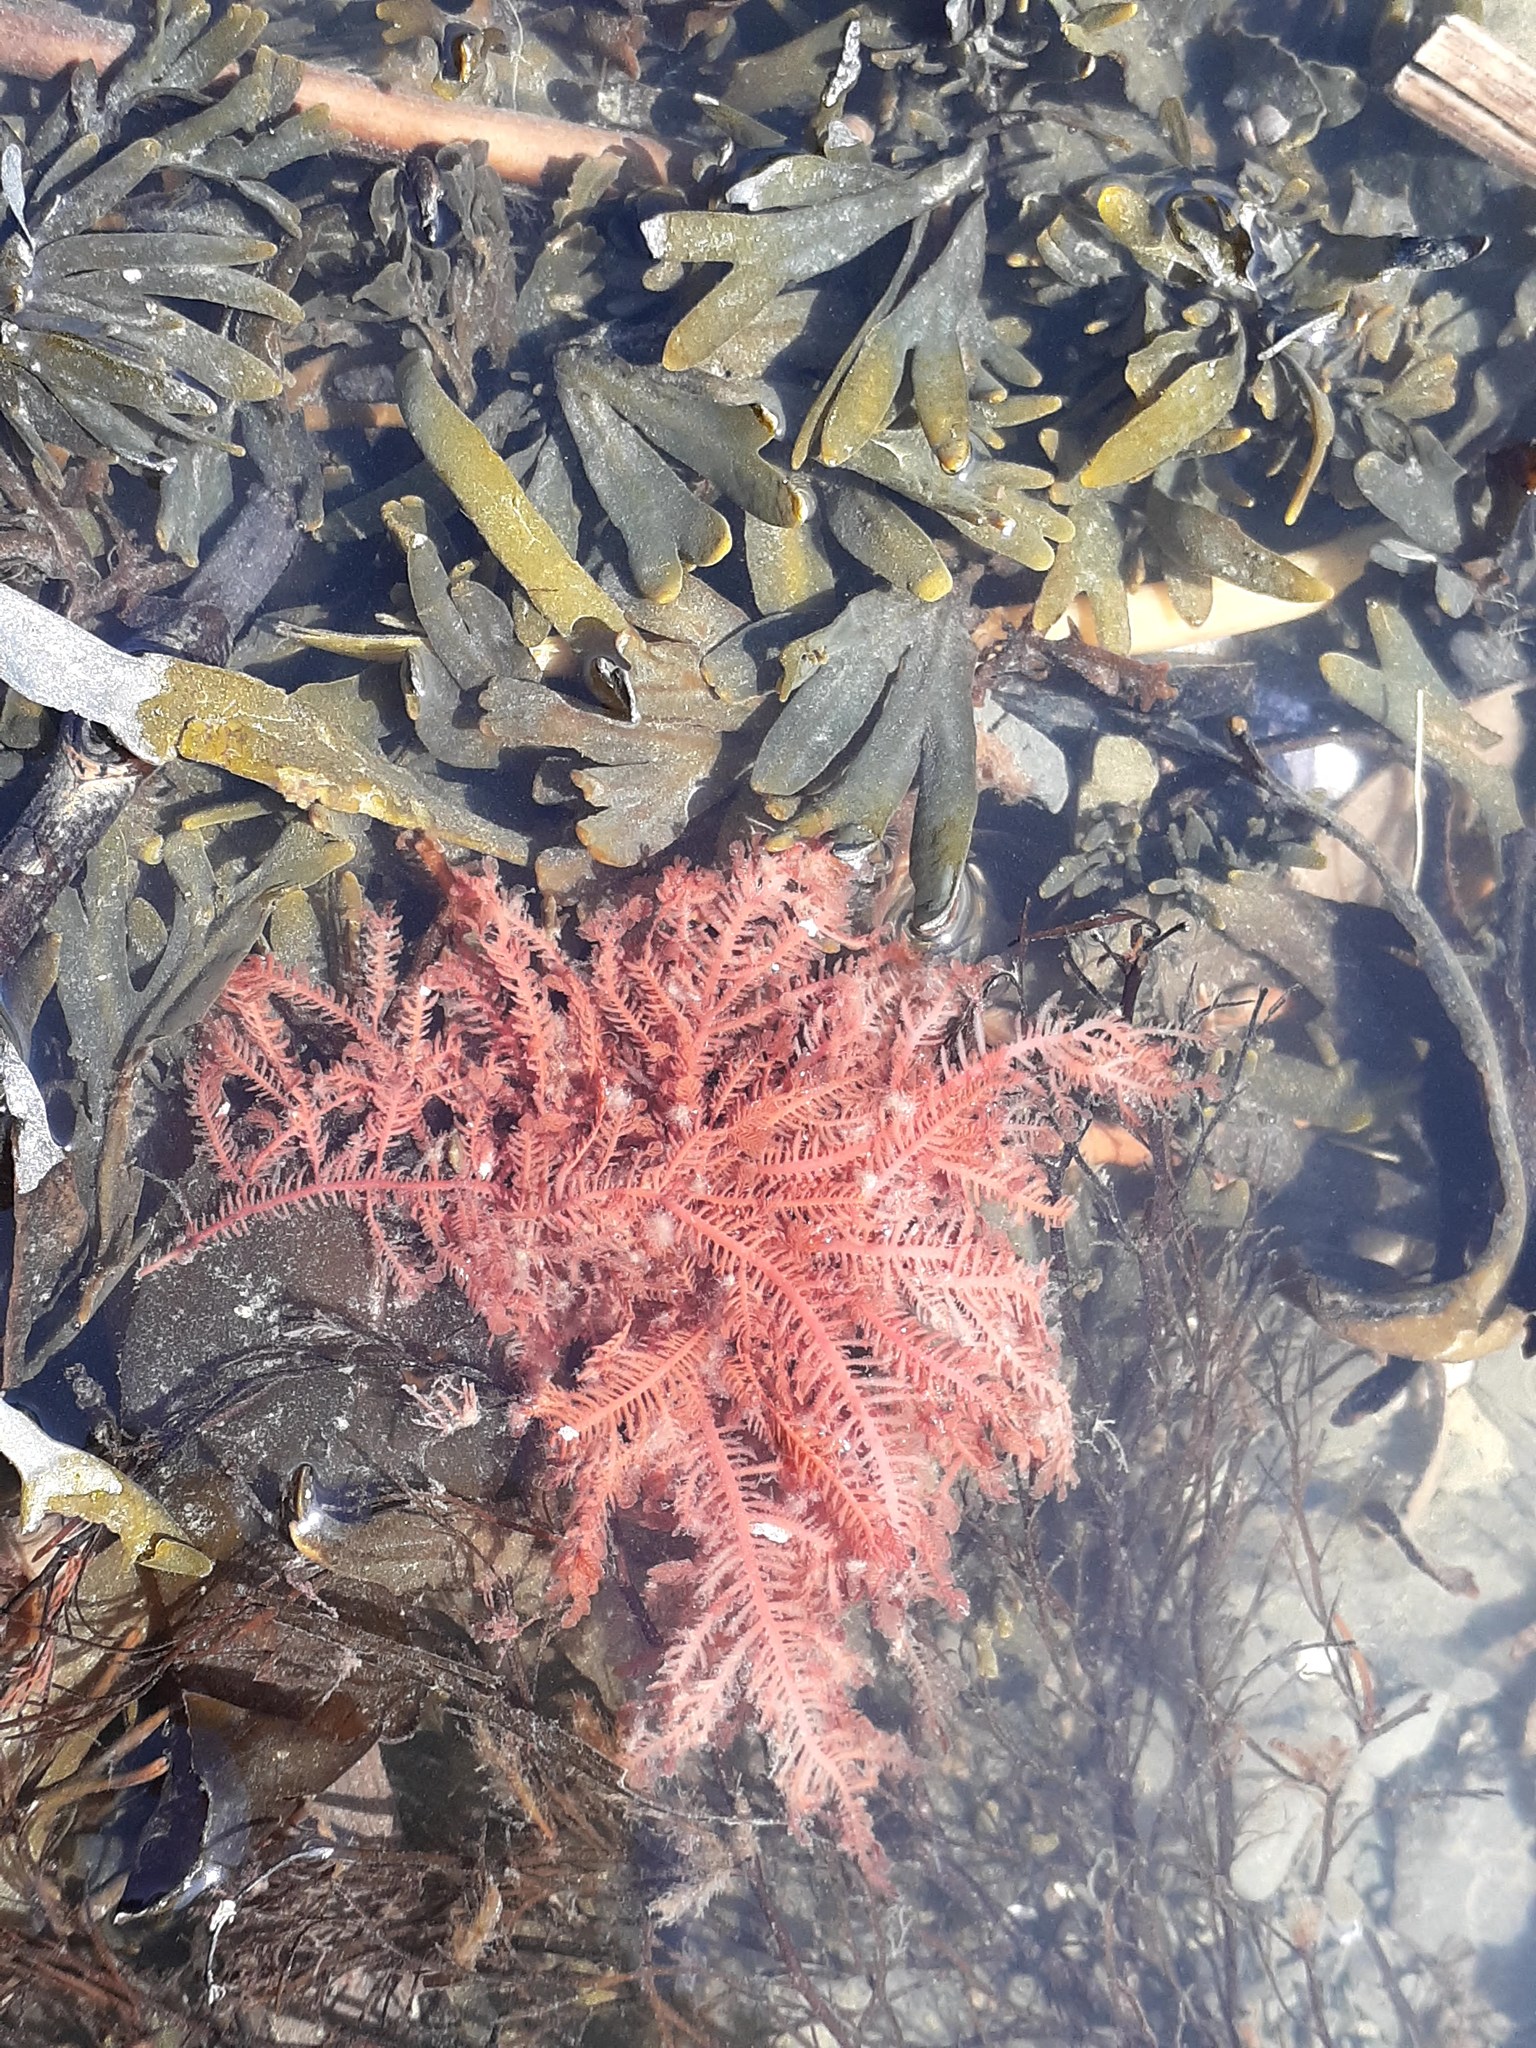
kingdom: Plantae
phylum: Rhodophyta
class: Florideophyceae
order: Ceramiales
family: Wrangeliaceae
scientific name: Wrangeliaceae
